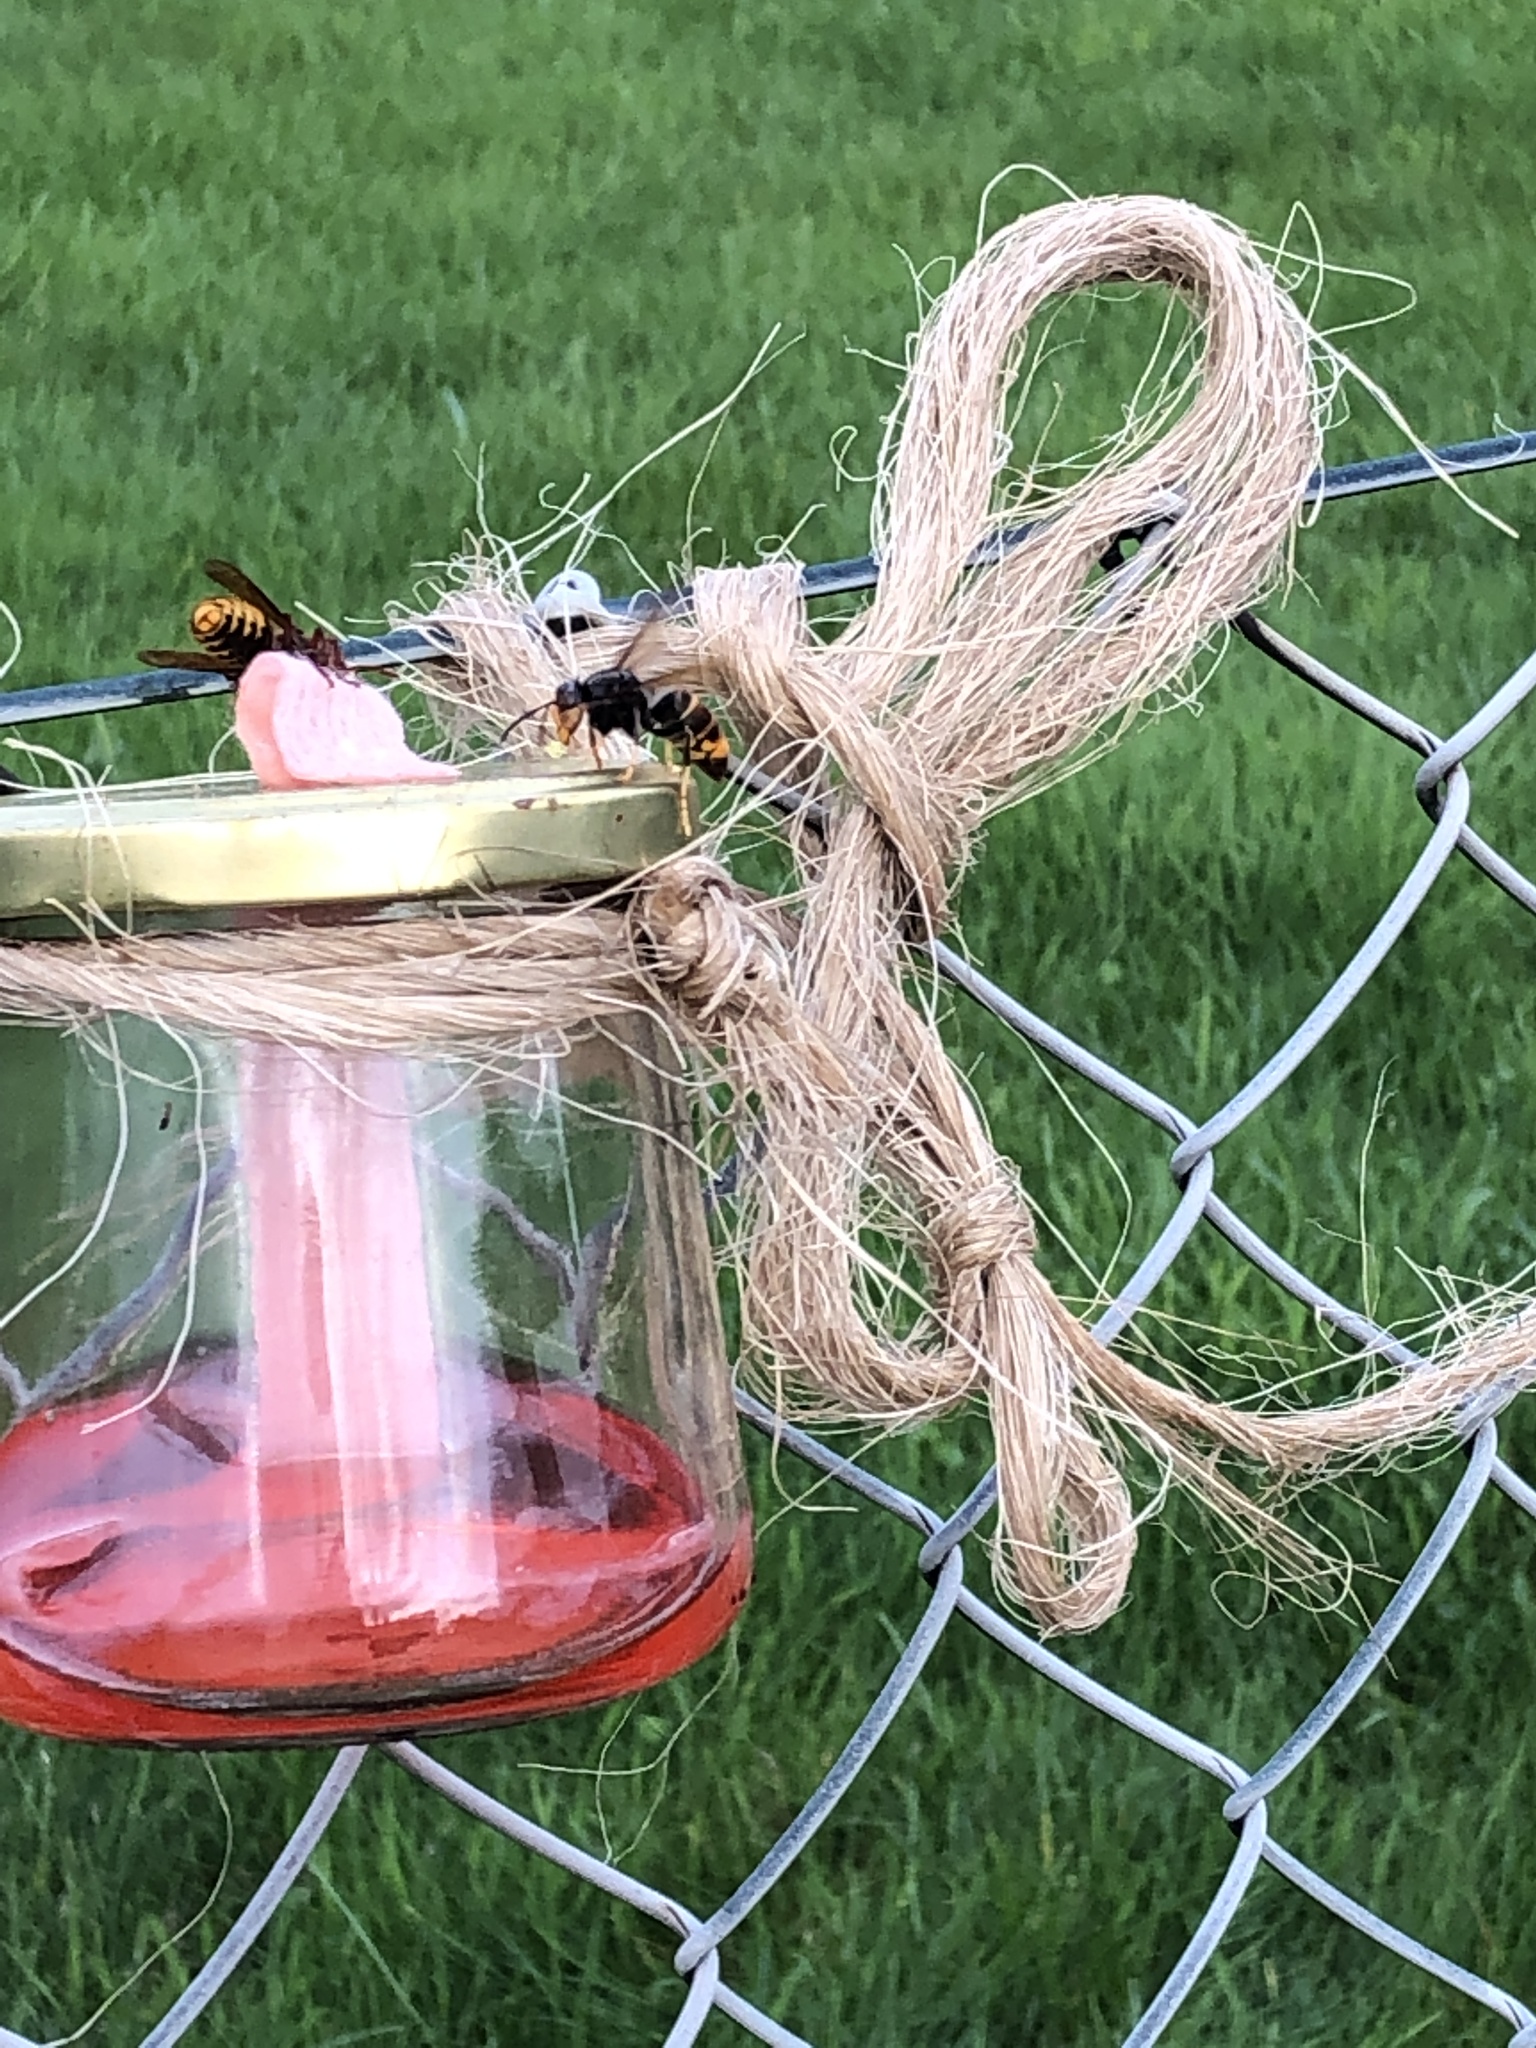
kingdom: Animalia
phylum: Arthropoda
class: Insecta
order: Hymenoptera
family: Vespidae
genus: Vespa
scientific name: Vespa velutina
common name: Asian hornet
